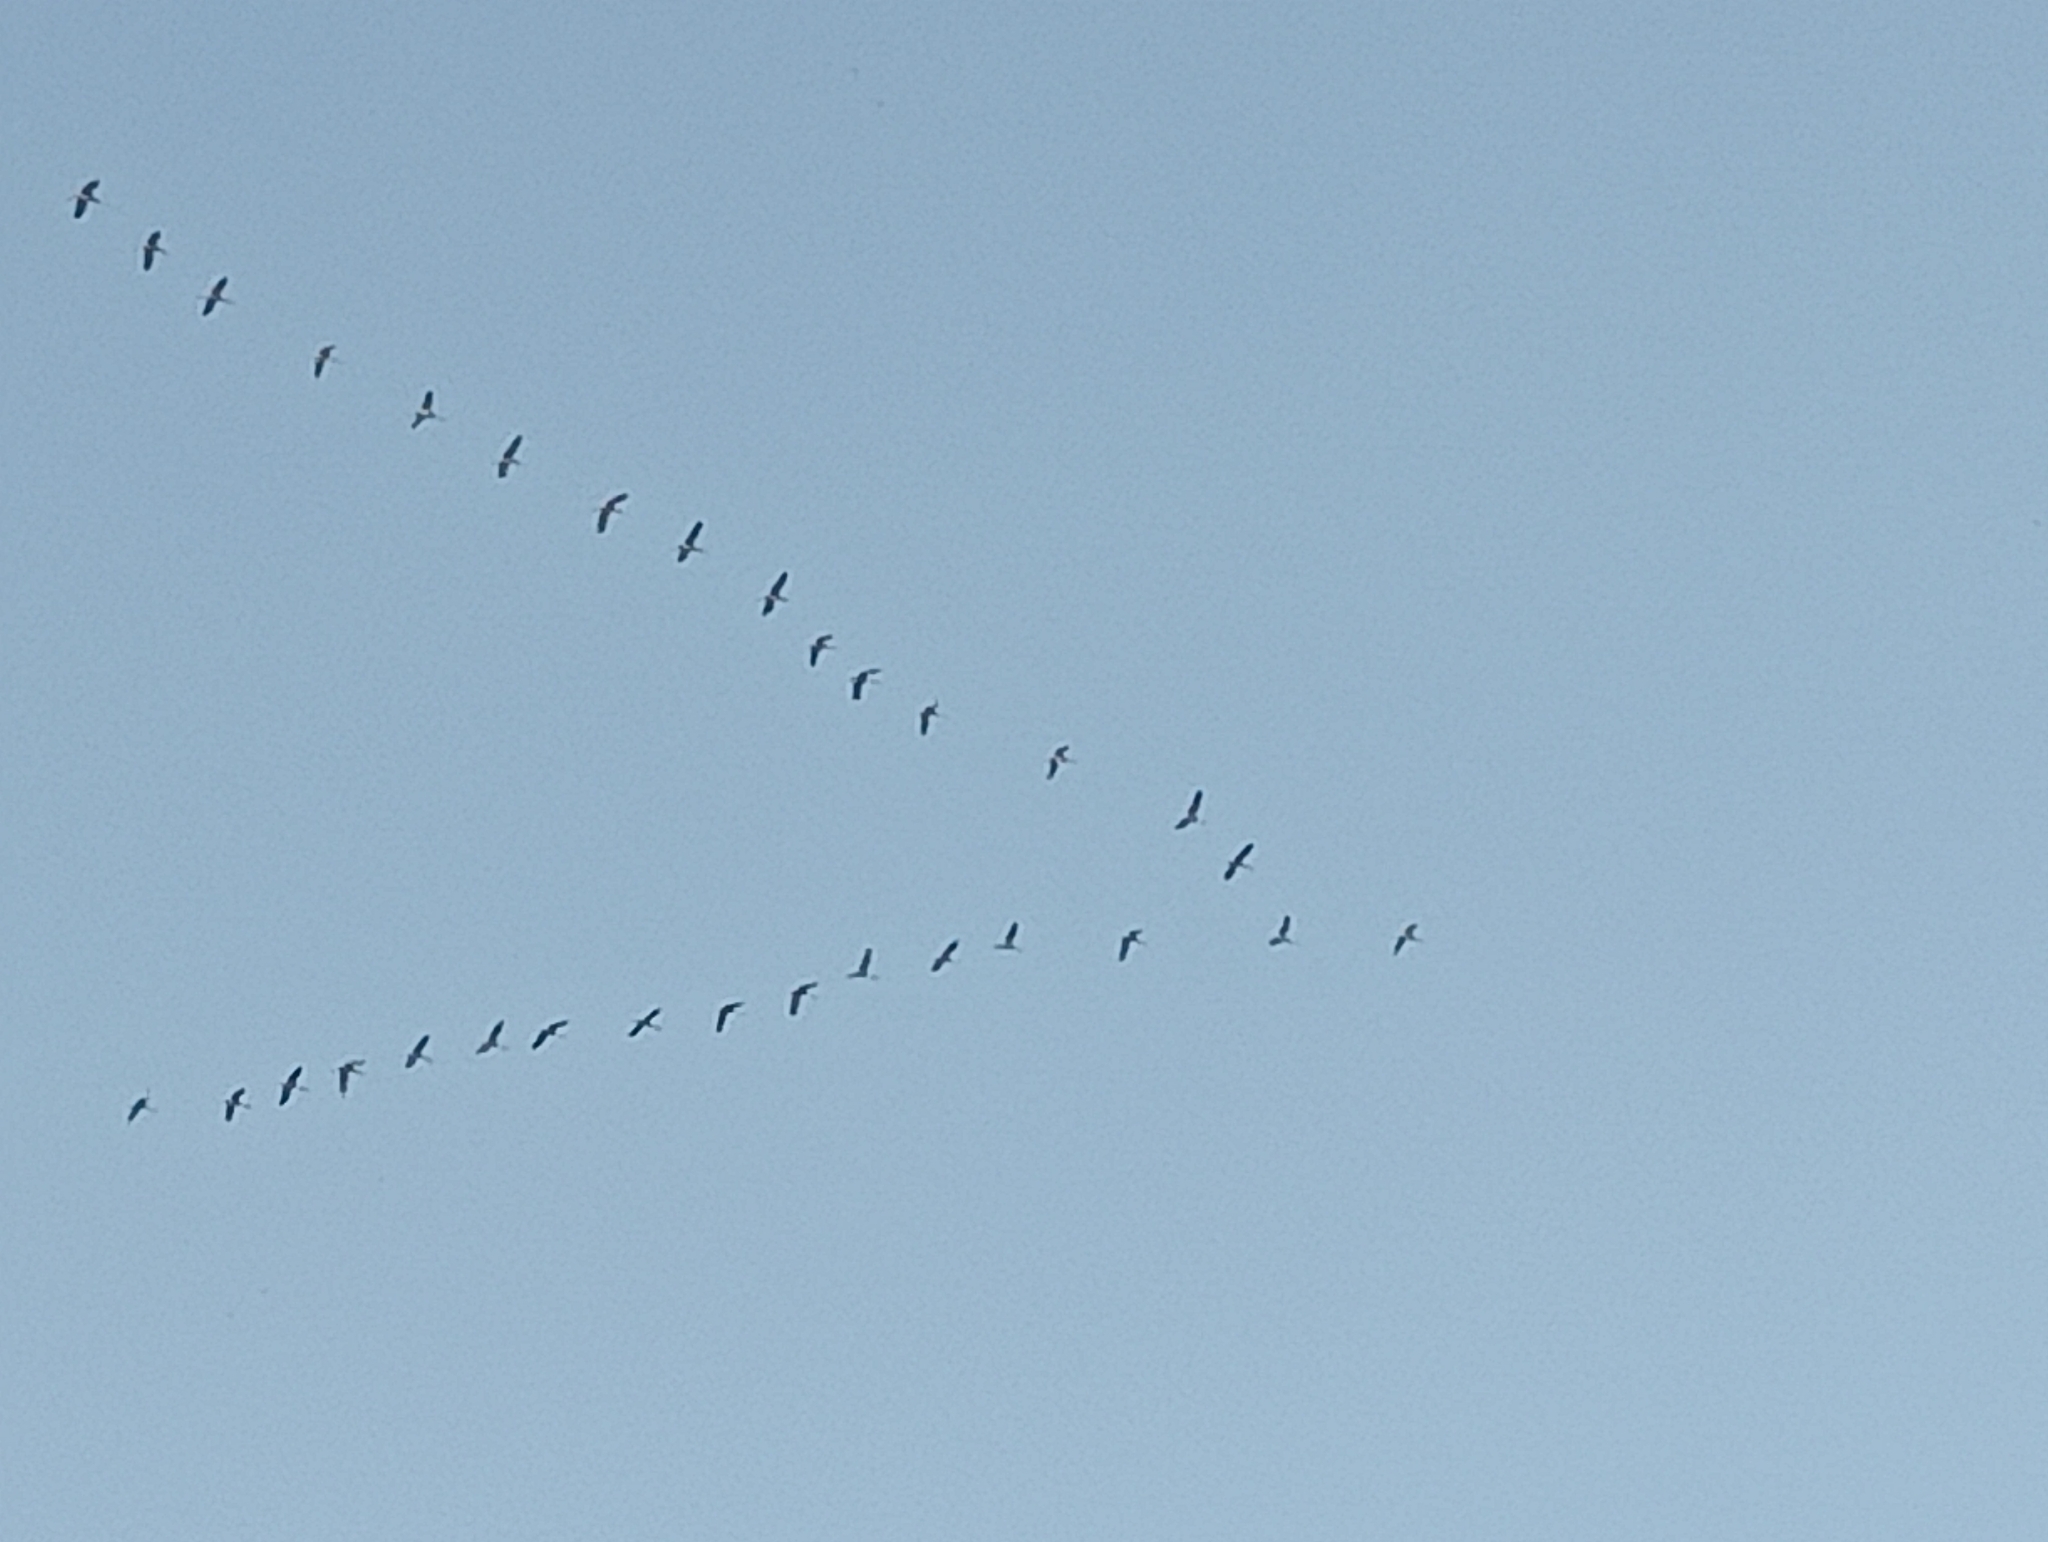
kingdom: Animalia
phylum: Chordata
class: Aves
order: Gruiformes
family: Gruidae
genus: Grus
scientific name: Grus grus
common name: Common crane
